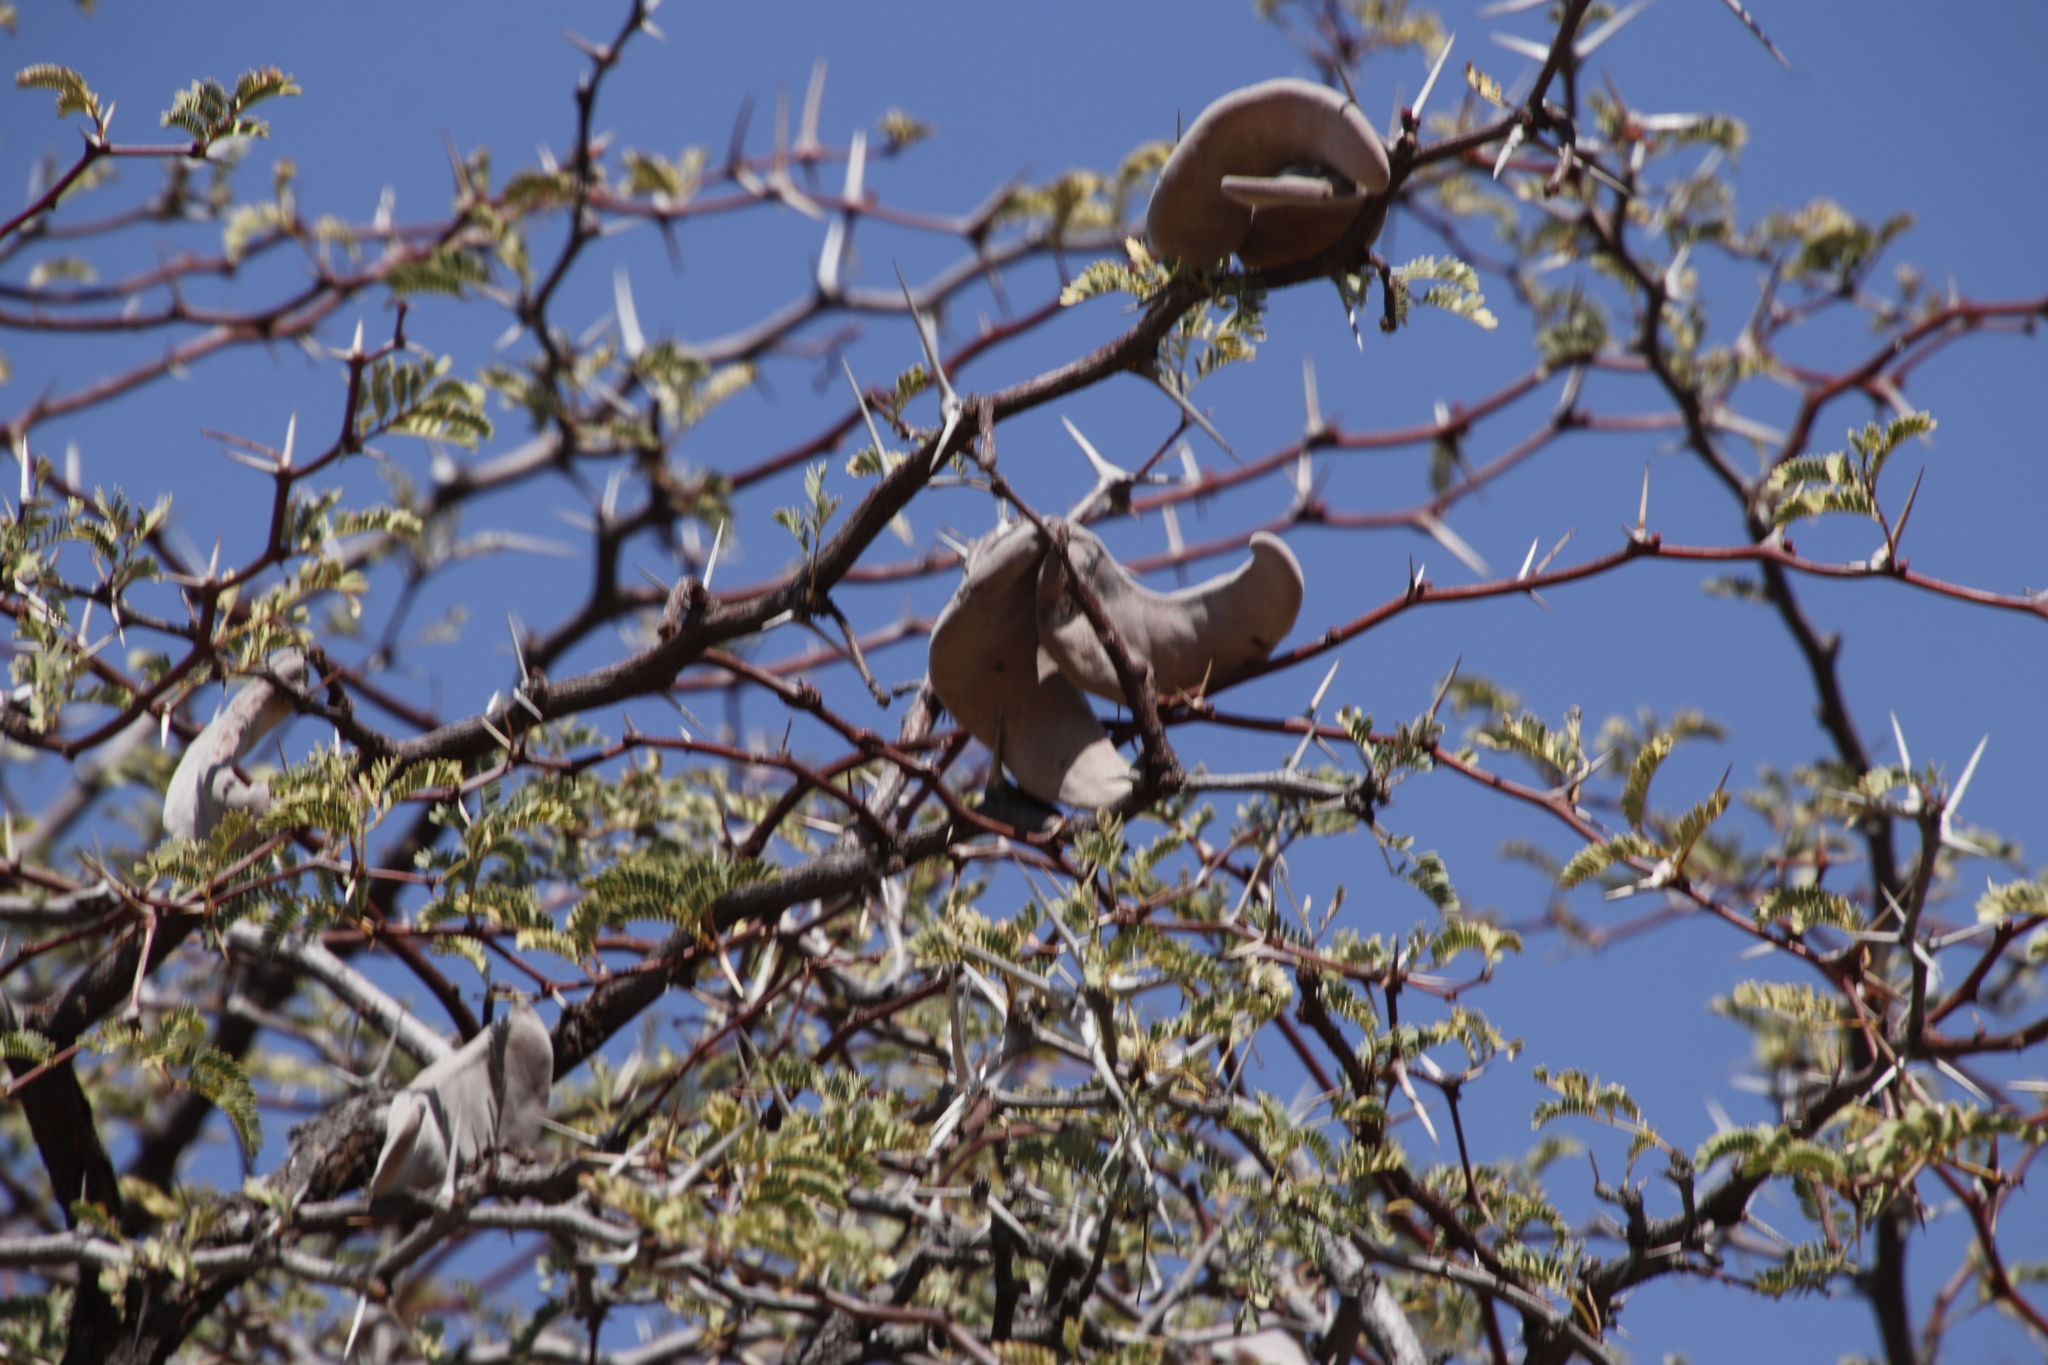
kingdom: Plantae
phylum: Tracheophyta
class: Magnoliopsida
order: Fabales
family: Fabaceae
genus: Vachellia
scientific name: Vachellia erioloba
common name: Camel thorn
